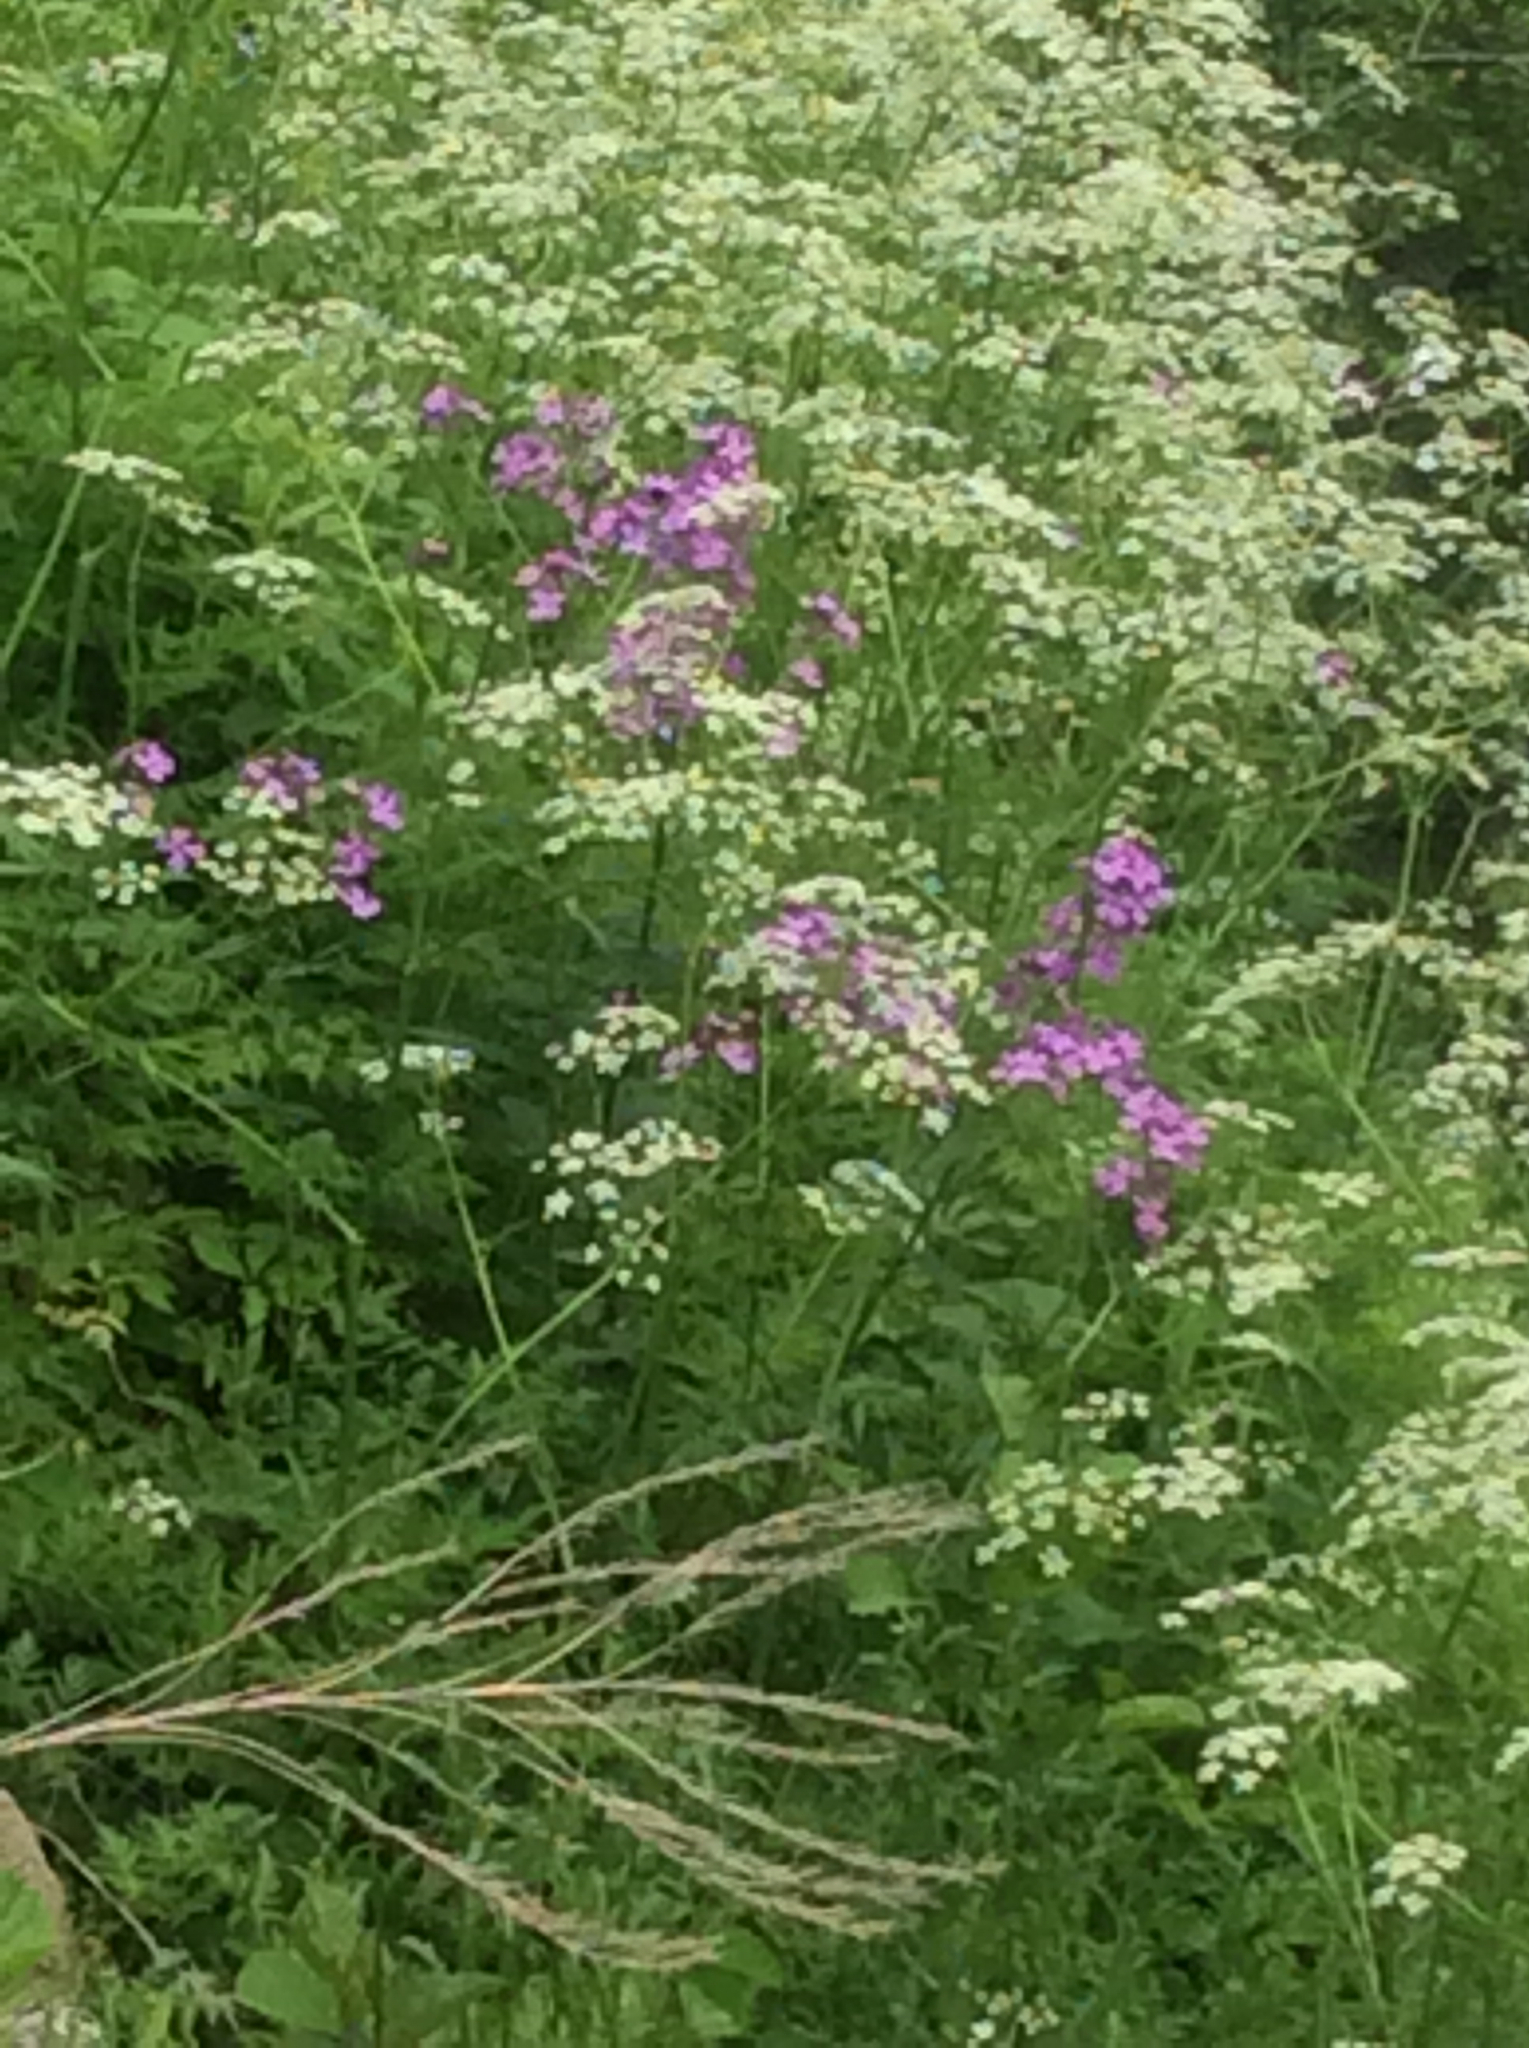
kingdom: Plantae
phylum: Tracheophyta
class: Magnoliopsida
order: Brassicales
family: Brassicaceae
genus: Hesperis
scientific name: Hesperis matronalis
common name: Dame's-violet
